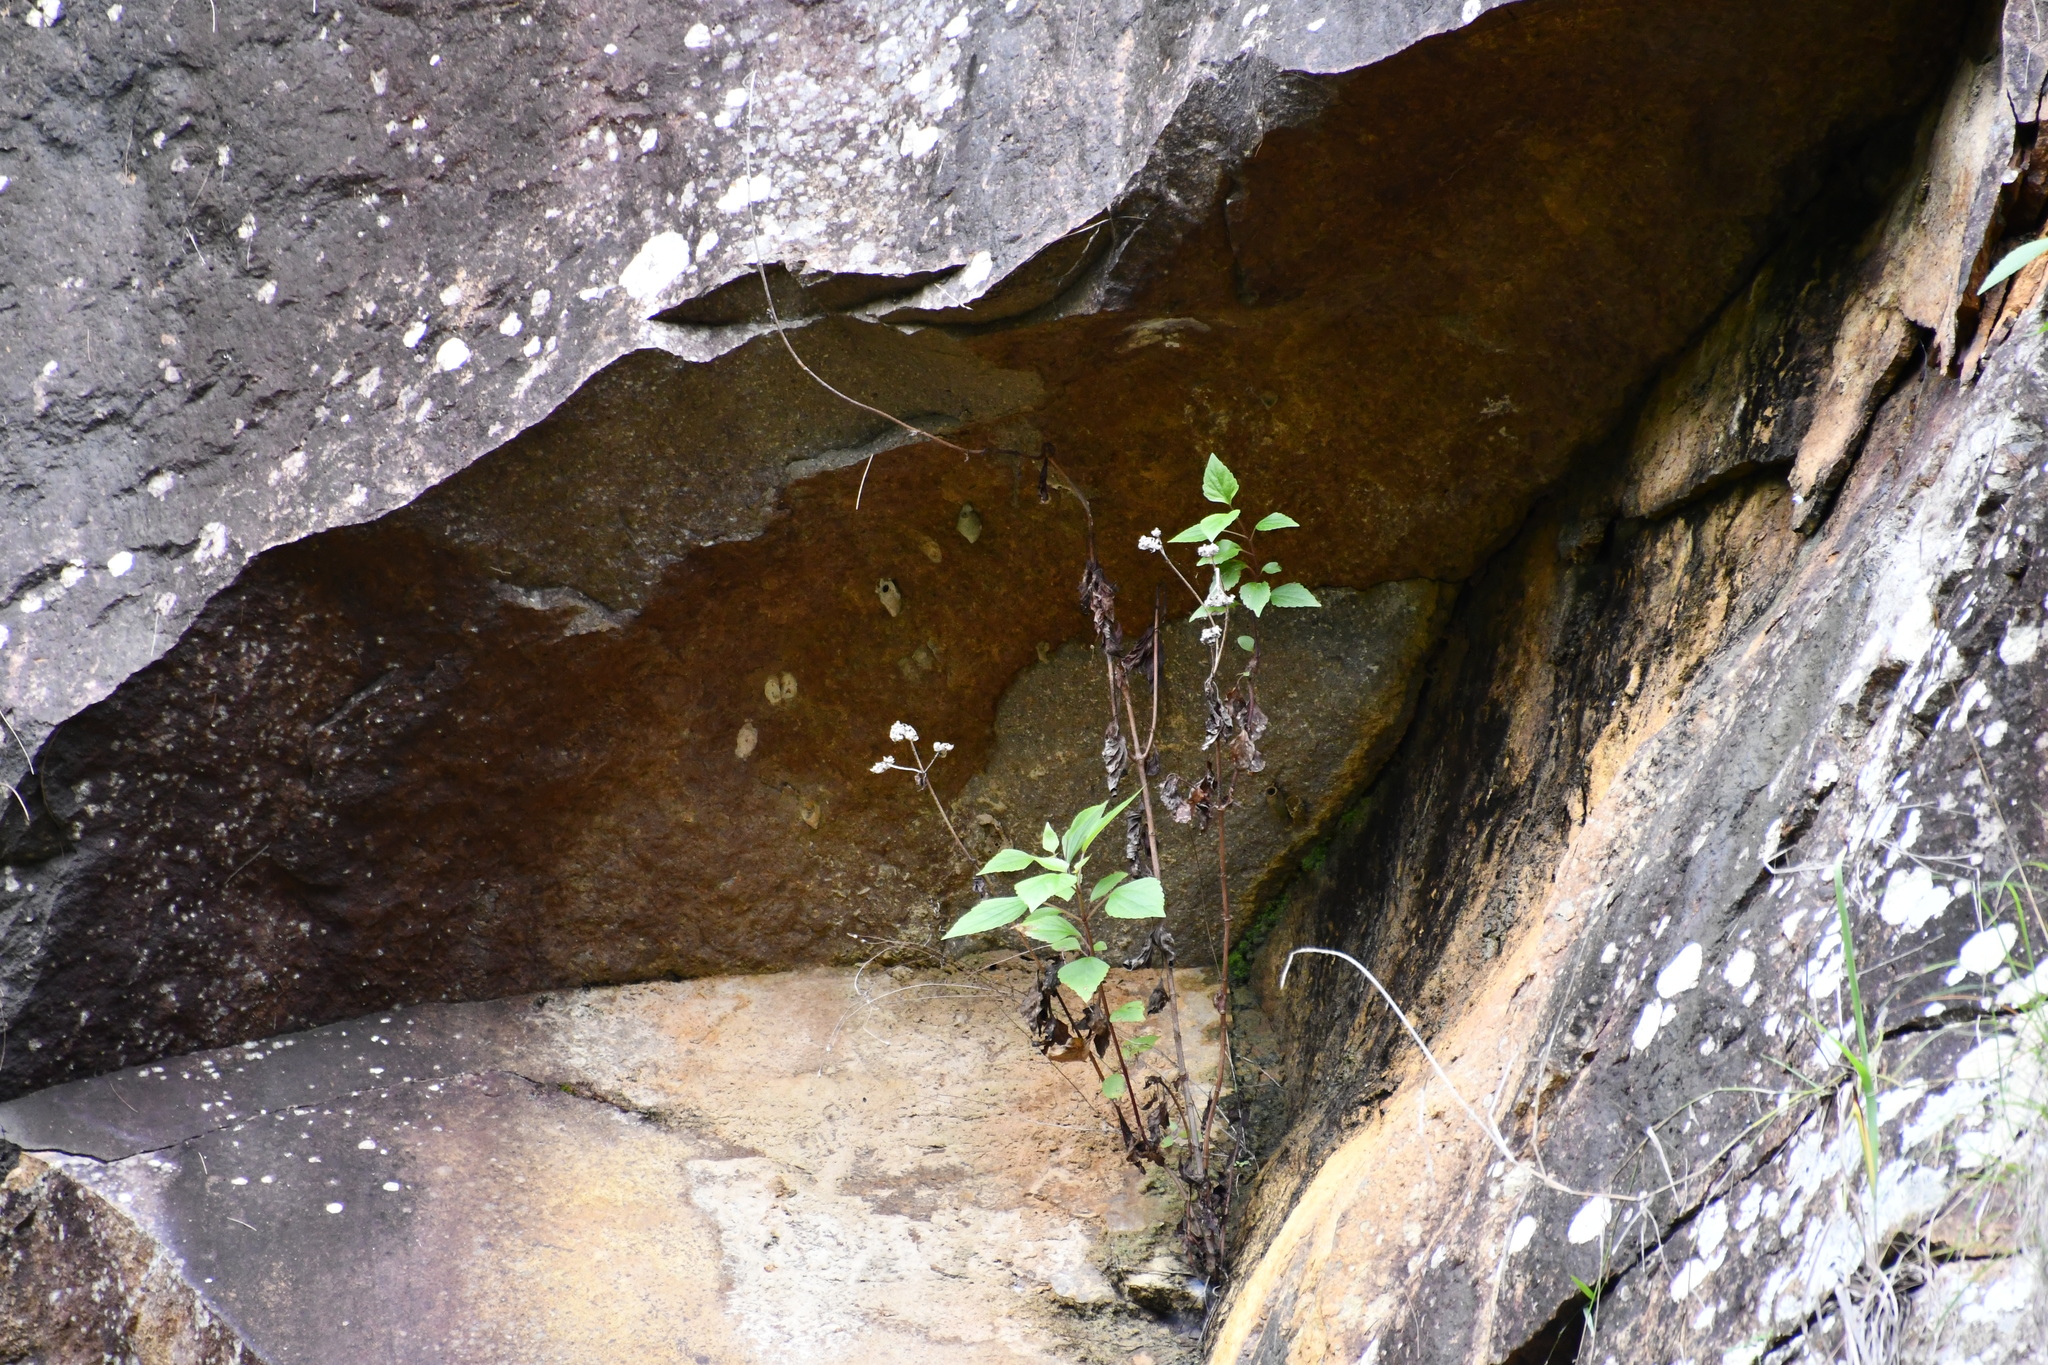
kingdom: Plantae
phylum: Tracheophyta
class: Magnoliopsida
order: Asterales
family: Asteraceae
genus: Ageratina
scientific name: Ageratina adenophora
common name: Sticky snakeroot
